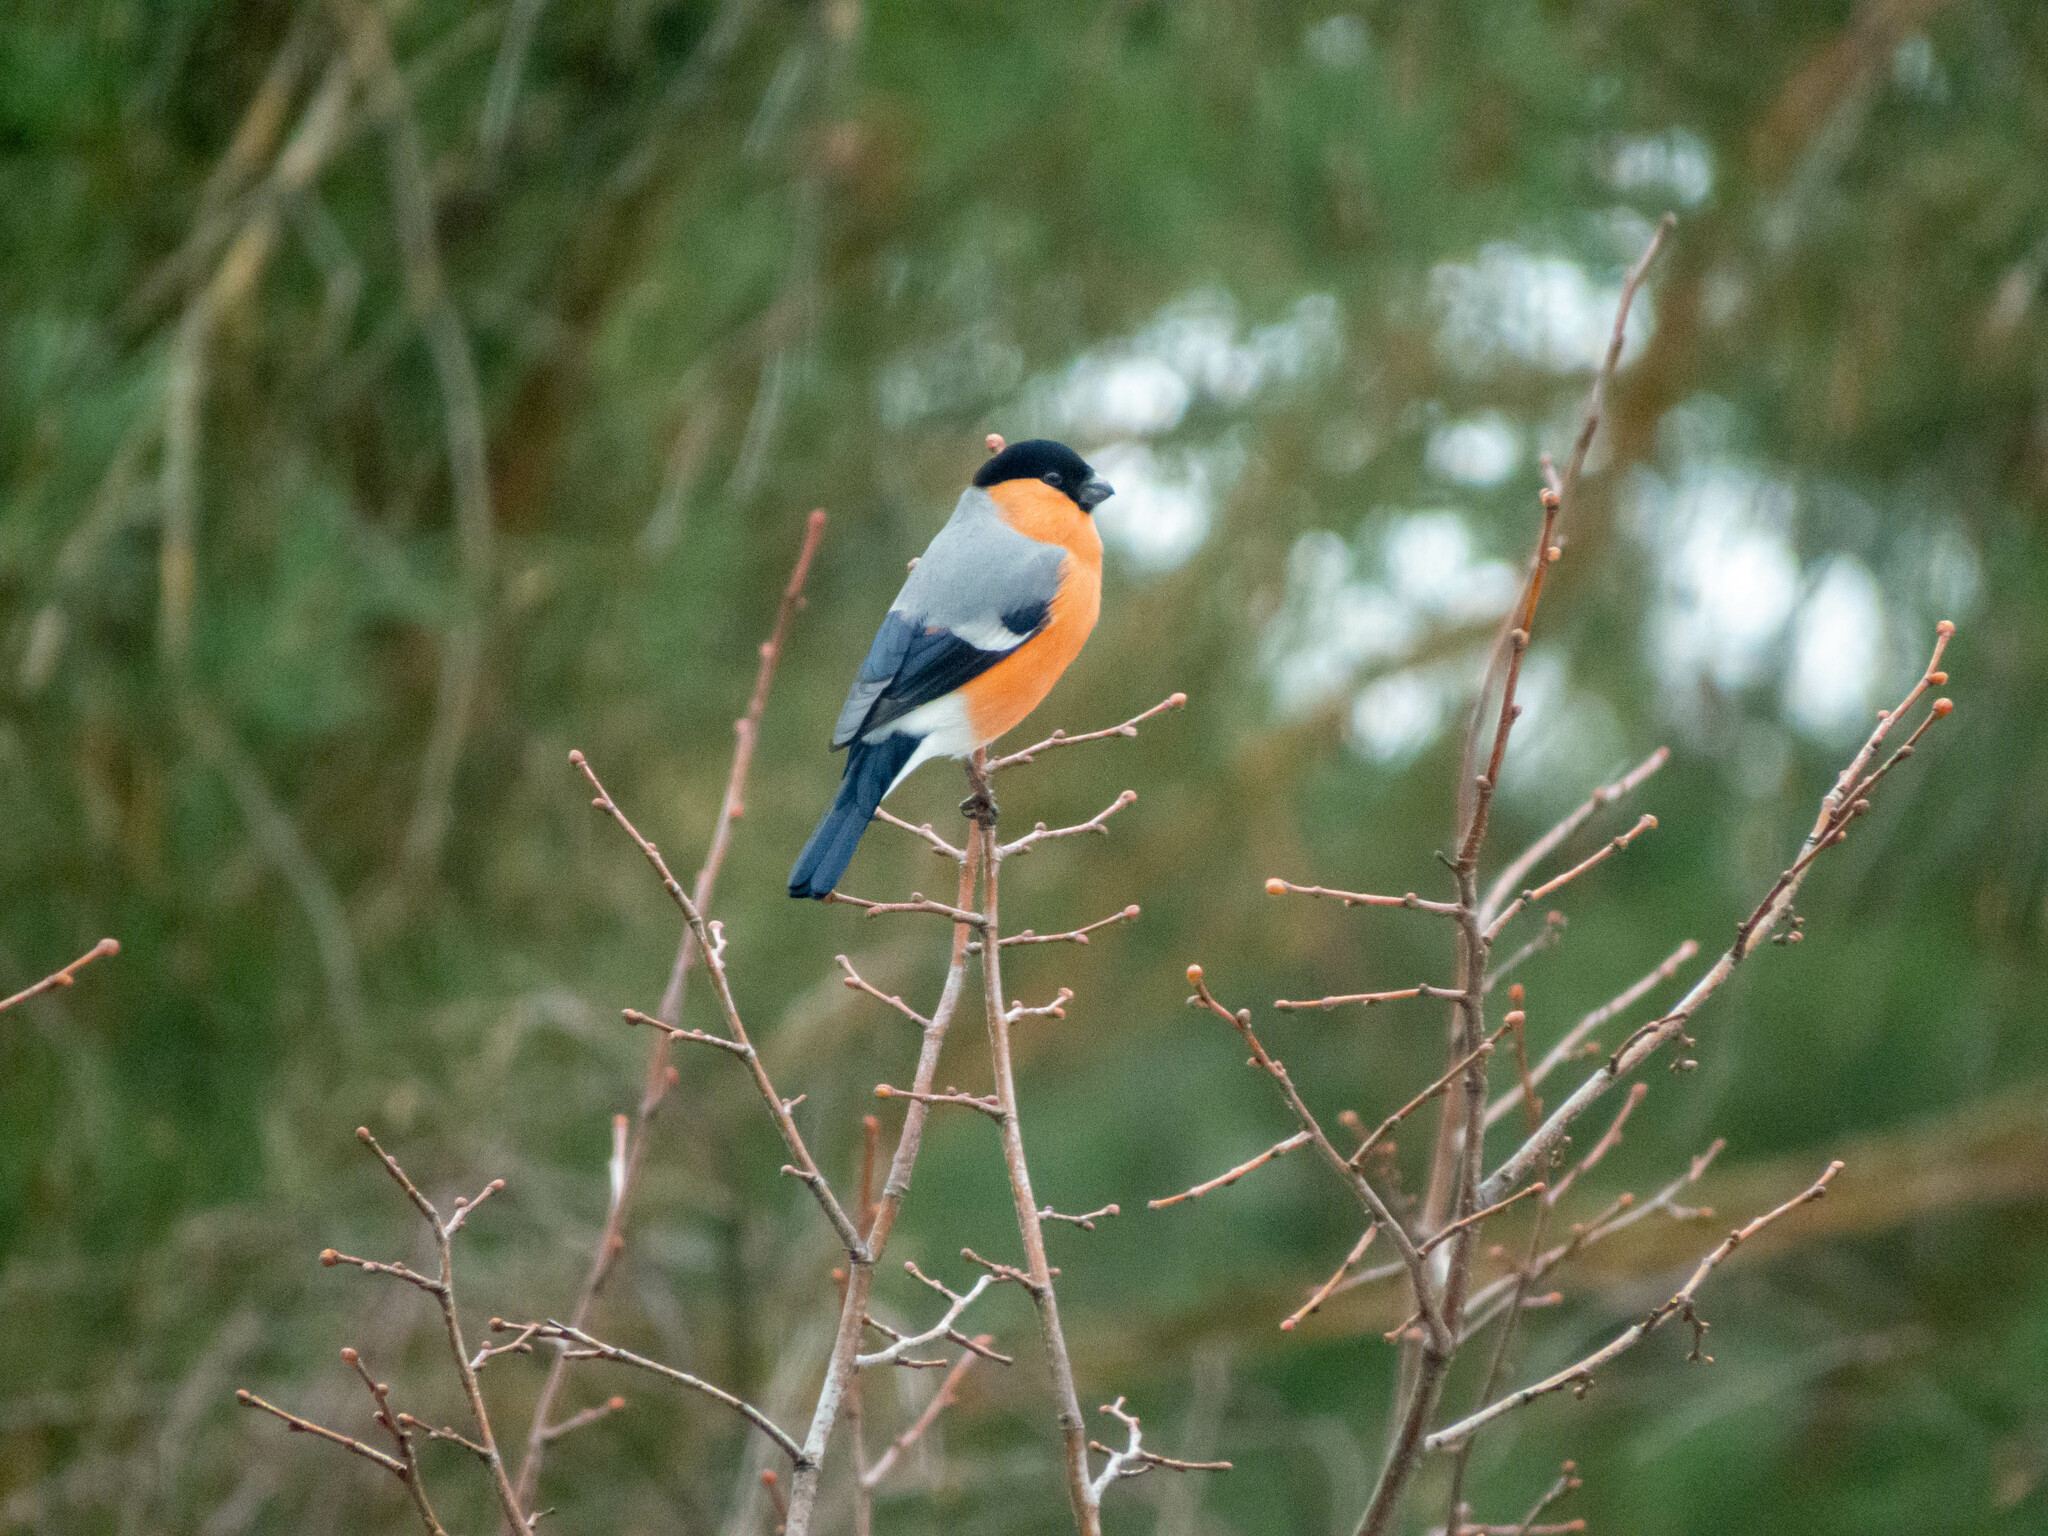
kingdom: Animalia
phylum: Chordata
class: Aves
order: Passeriformes
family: Fringillidae
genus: Pyrrhula
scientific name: Pyrrhula pyrrhula
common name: Eurasian bullfinch
